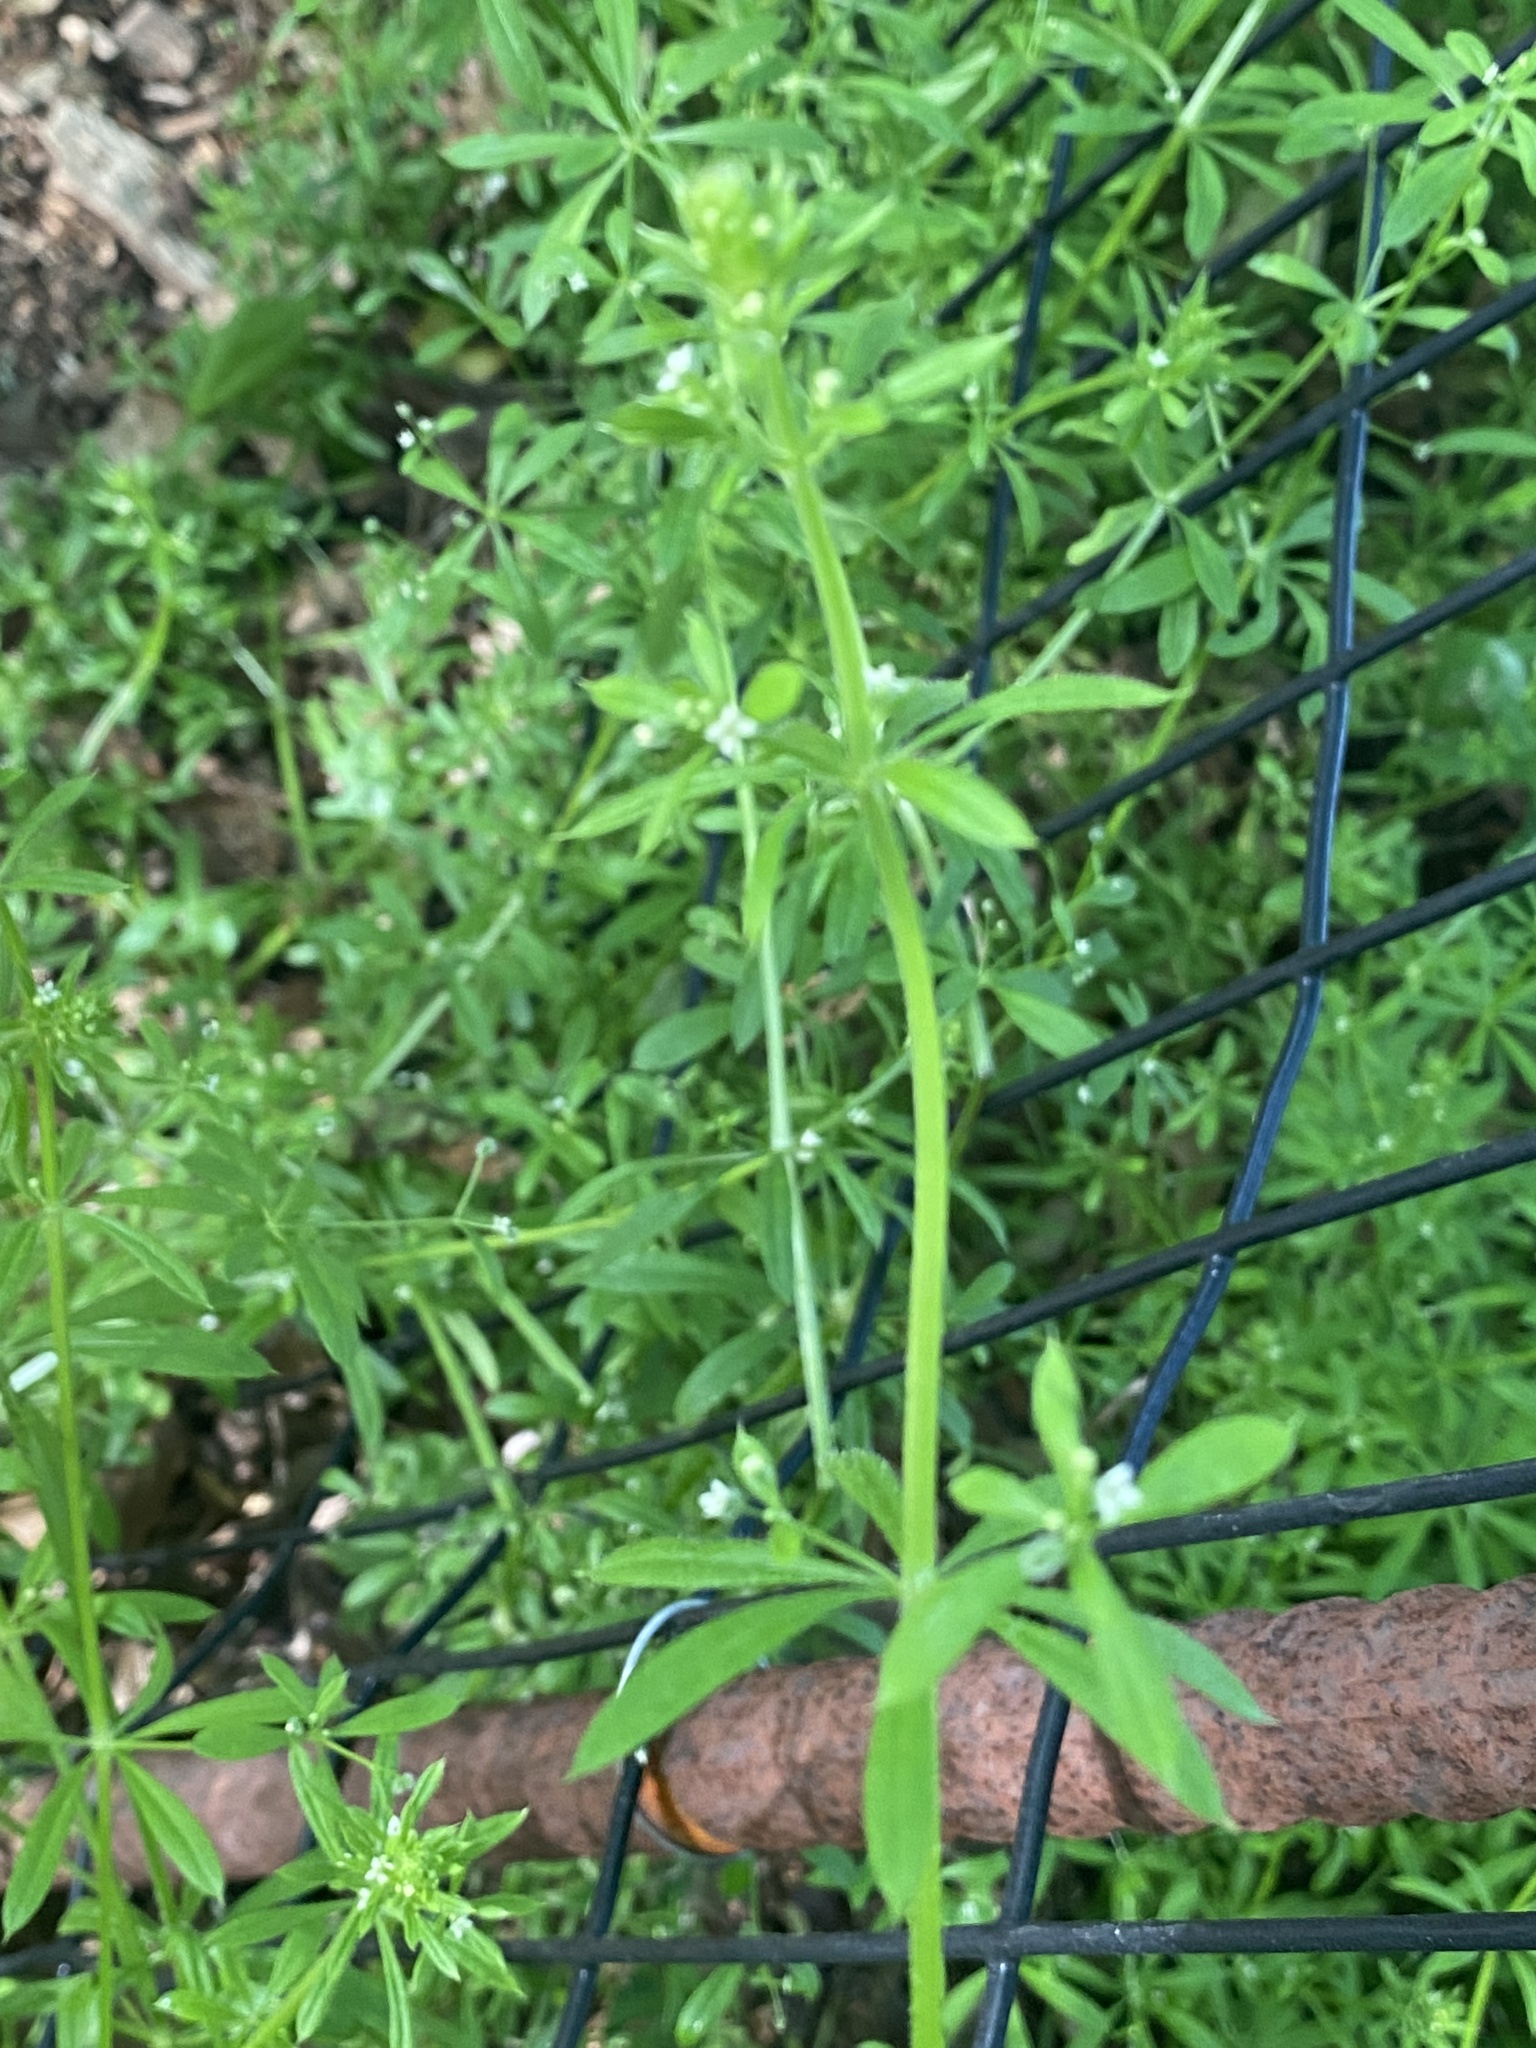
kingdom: Plantae
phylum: Tracheophyta
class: Magnoliopsida
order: Gentianales
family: Rubiaceae
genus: Galium
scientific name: Galium aparine
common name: Cleavers
